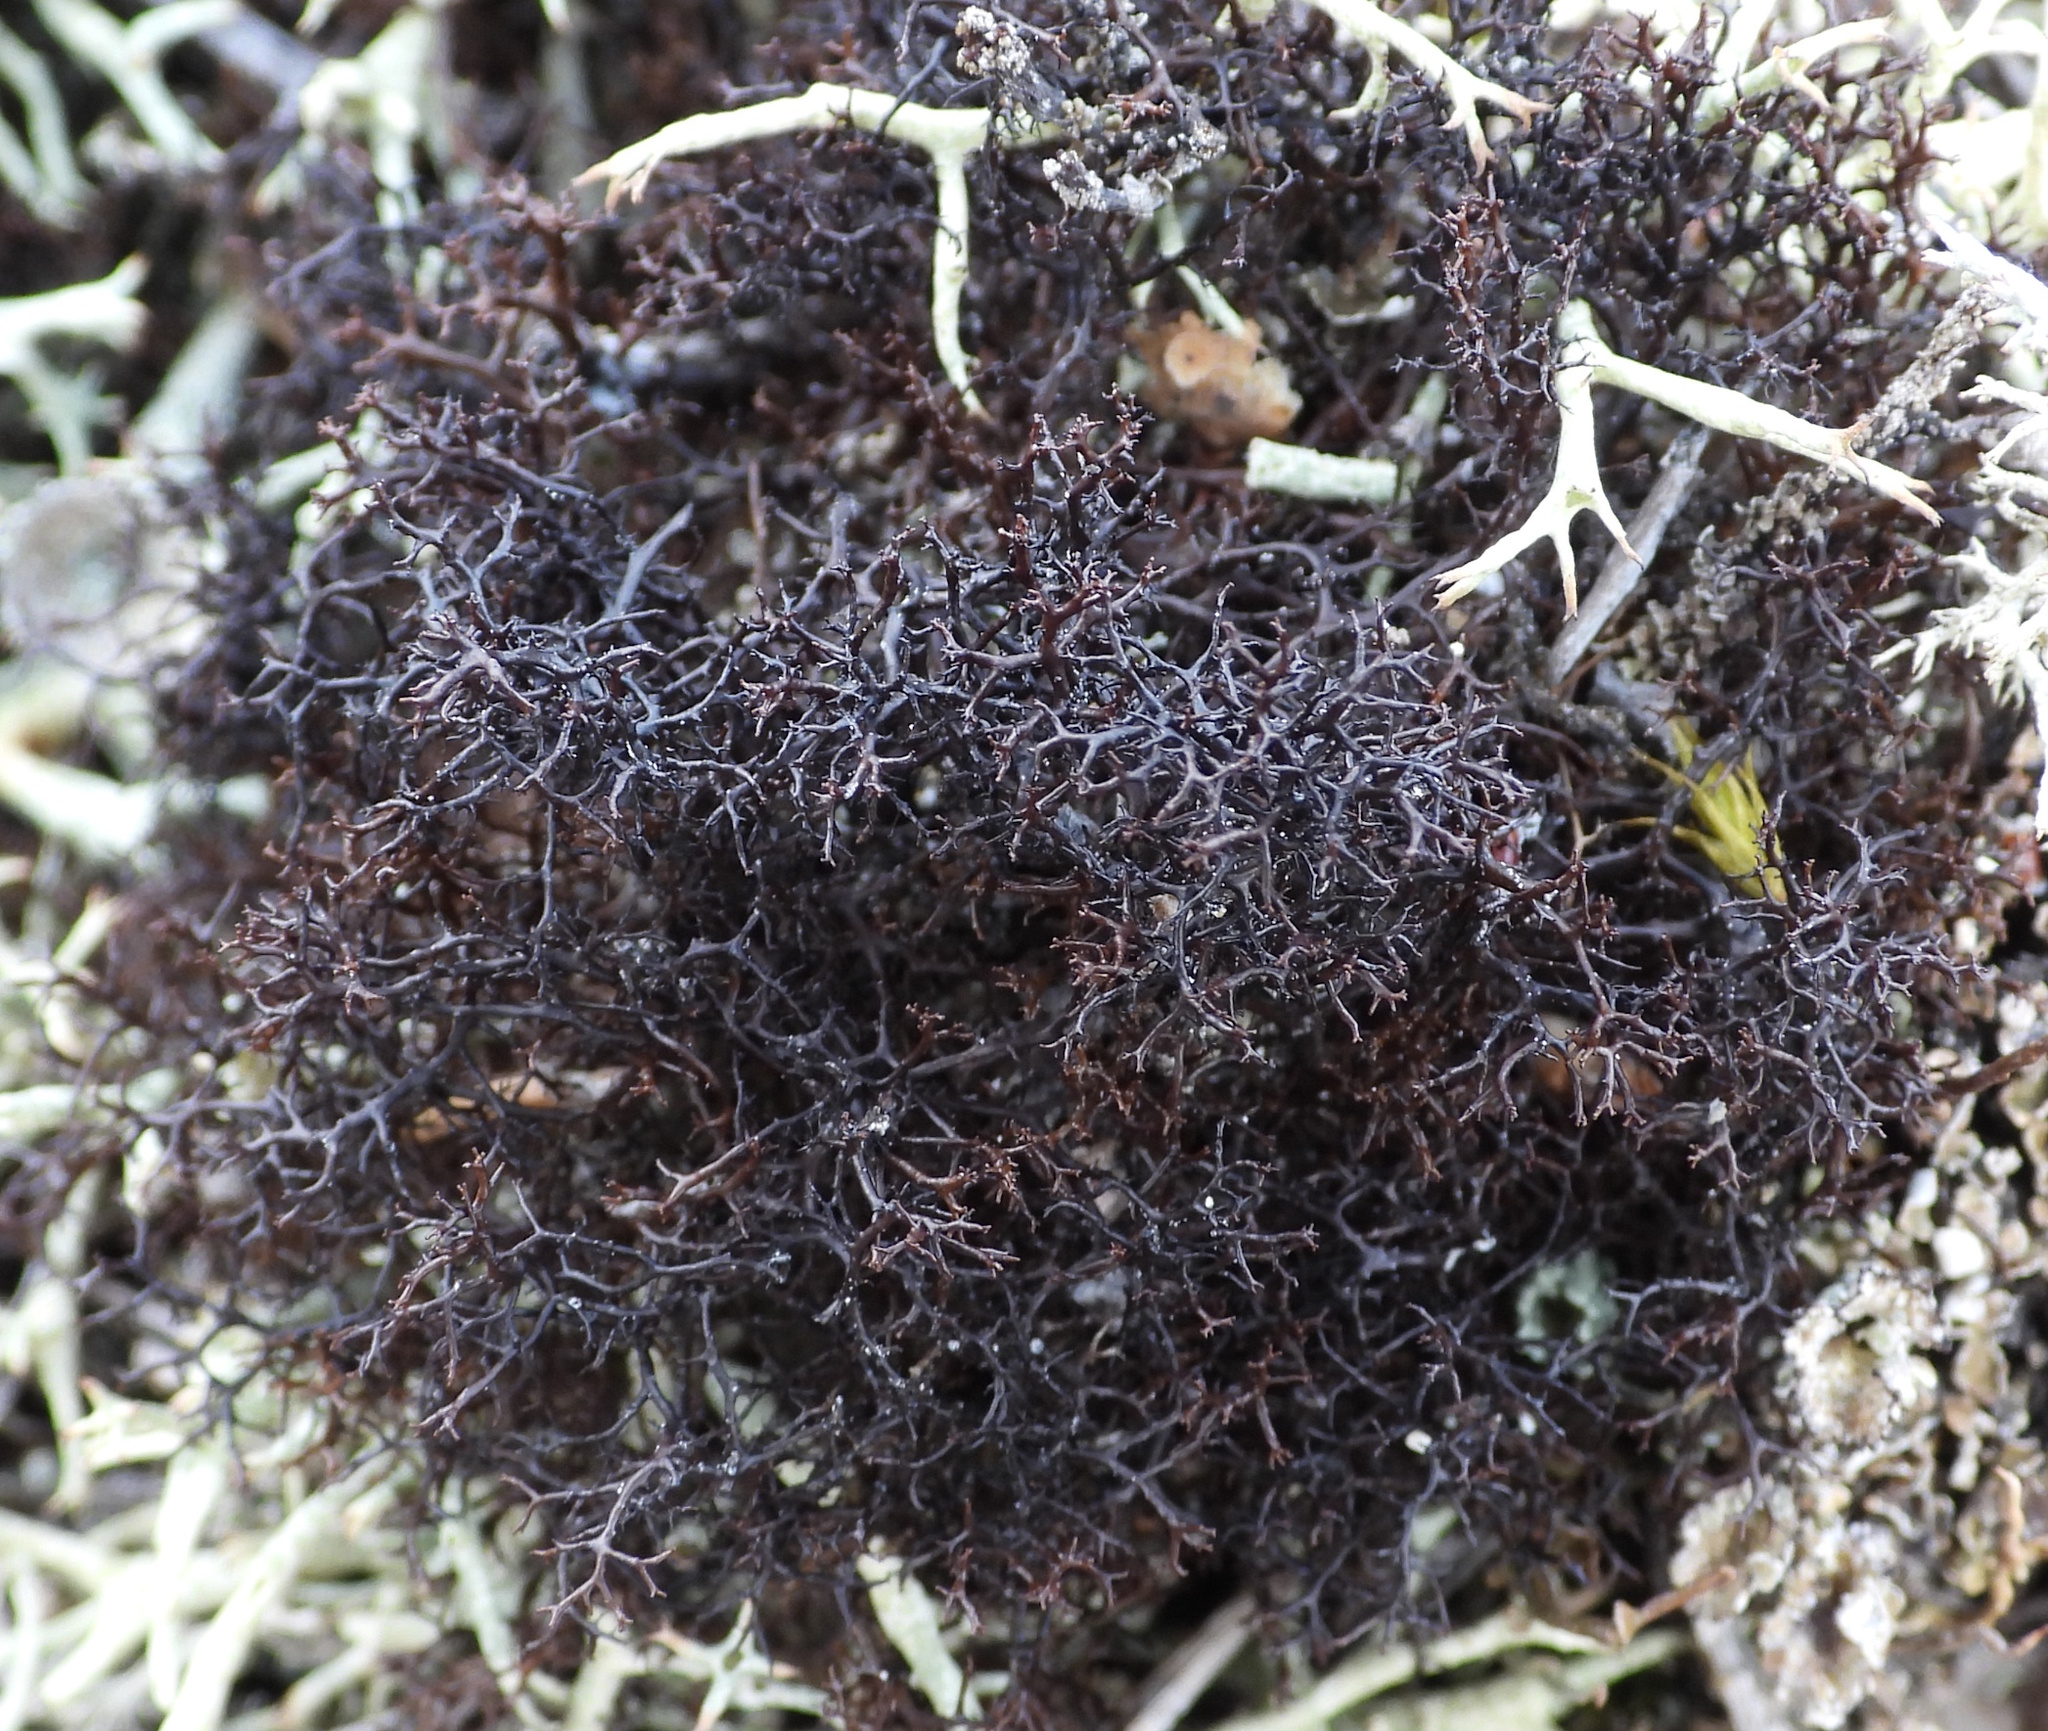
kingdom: Fungi
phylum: Ascomycota
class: Lecanoromycetes
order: Lecanorales
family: Parmeliaceae
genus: Cetraria
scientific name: Cetraria muricata
